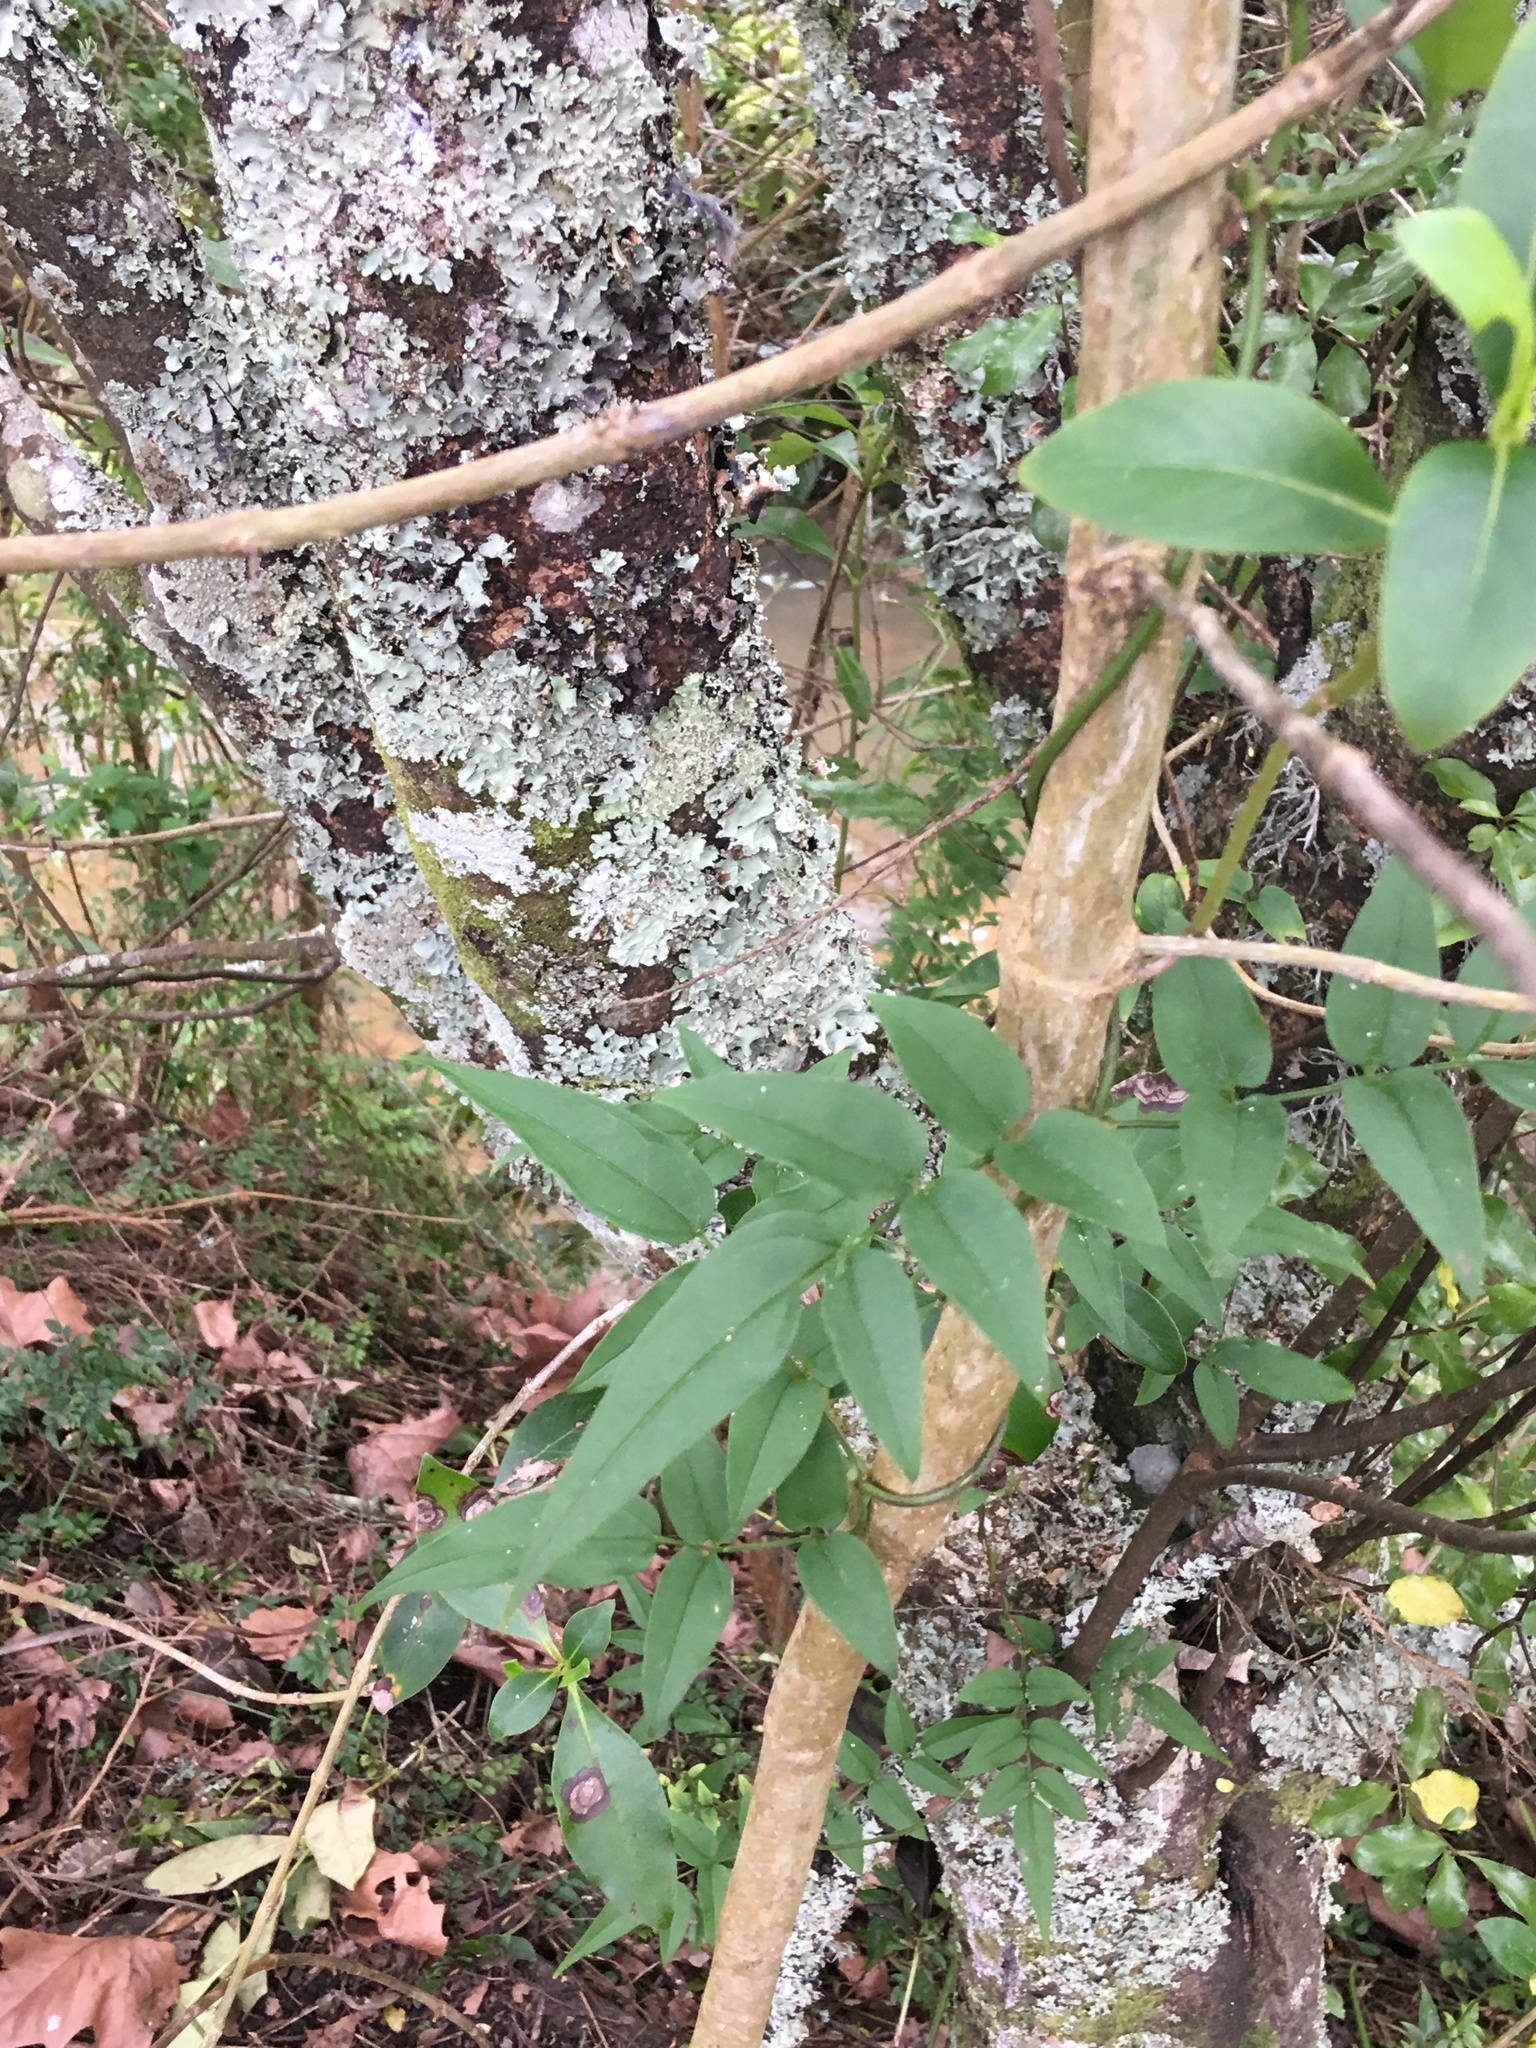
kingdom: Plantae
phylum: Tracheophyta
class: Magnoliopsida
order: Lamiales
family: Oleaceae
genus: Jasminum
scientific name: Jasminum polyanthum
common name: Pink jasmine
